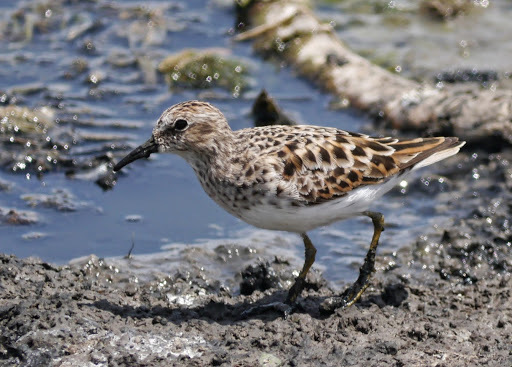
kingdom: Animalia
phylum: Chordata
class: Aves
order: Charadriiformes
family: Scolopacidae
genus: Calidris
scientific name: Calidris minutilla
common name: Least sandpiper
